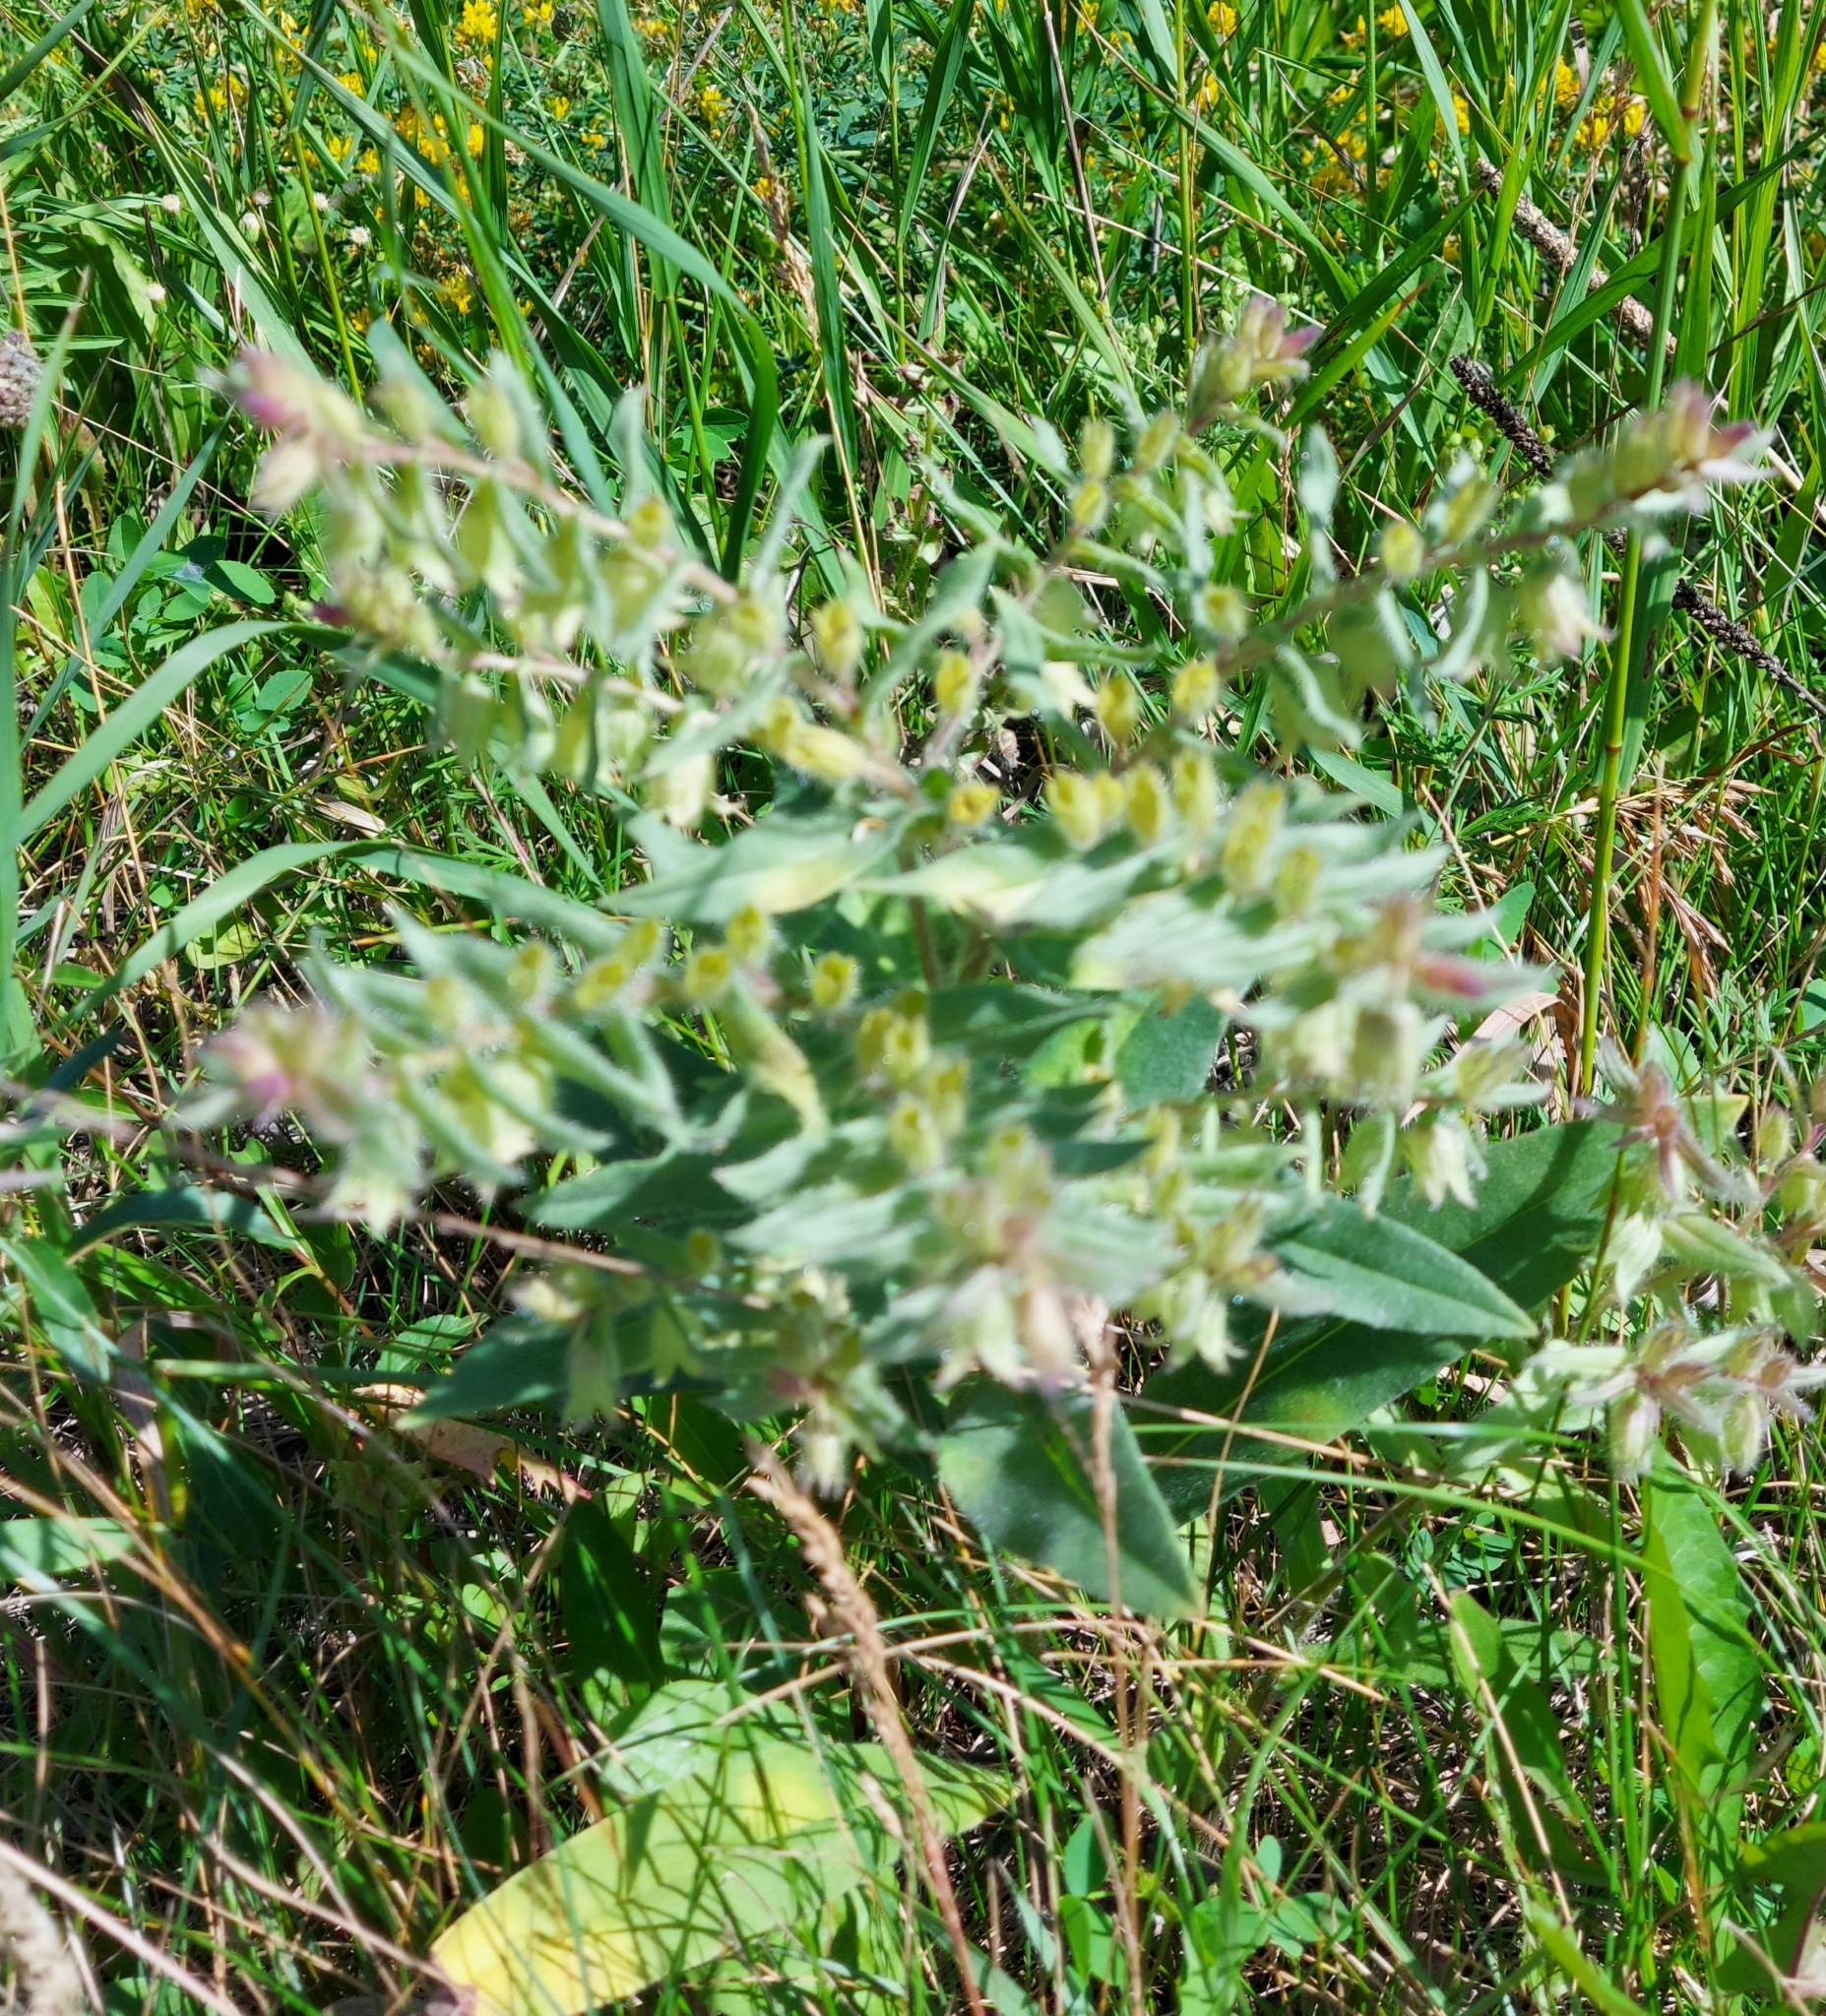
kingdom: Plantae
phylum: Tracheophyta
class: Magnoliopsida
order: Boraginales
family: Boraginaceae
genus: Nonea
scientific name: Nonea pulla
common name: Brown nonea
